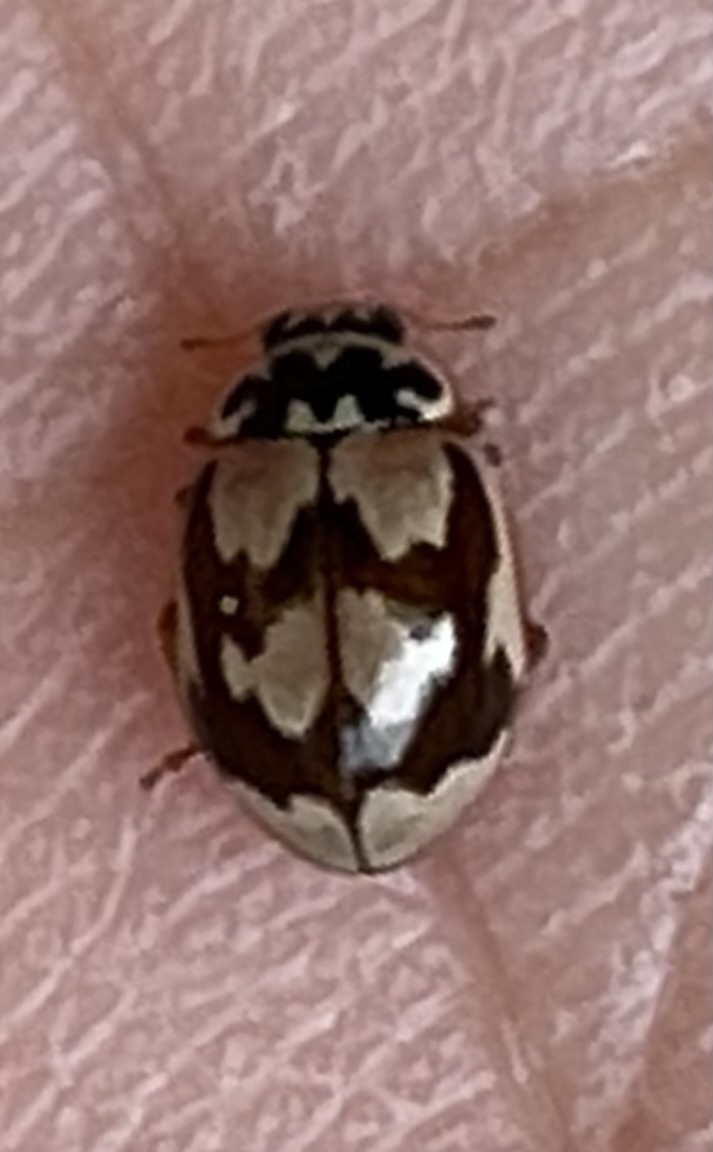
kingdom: Animalia
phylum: Arthropoda
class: Insecta
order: Coleoptera
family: Coccinellidae
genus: Mulsantina
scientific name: Mulsantina picta
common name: Painted ladybird
